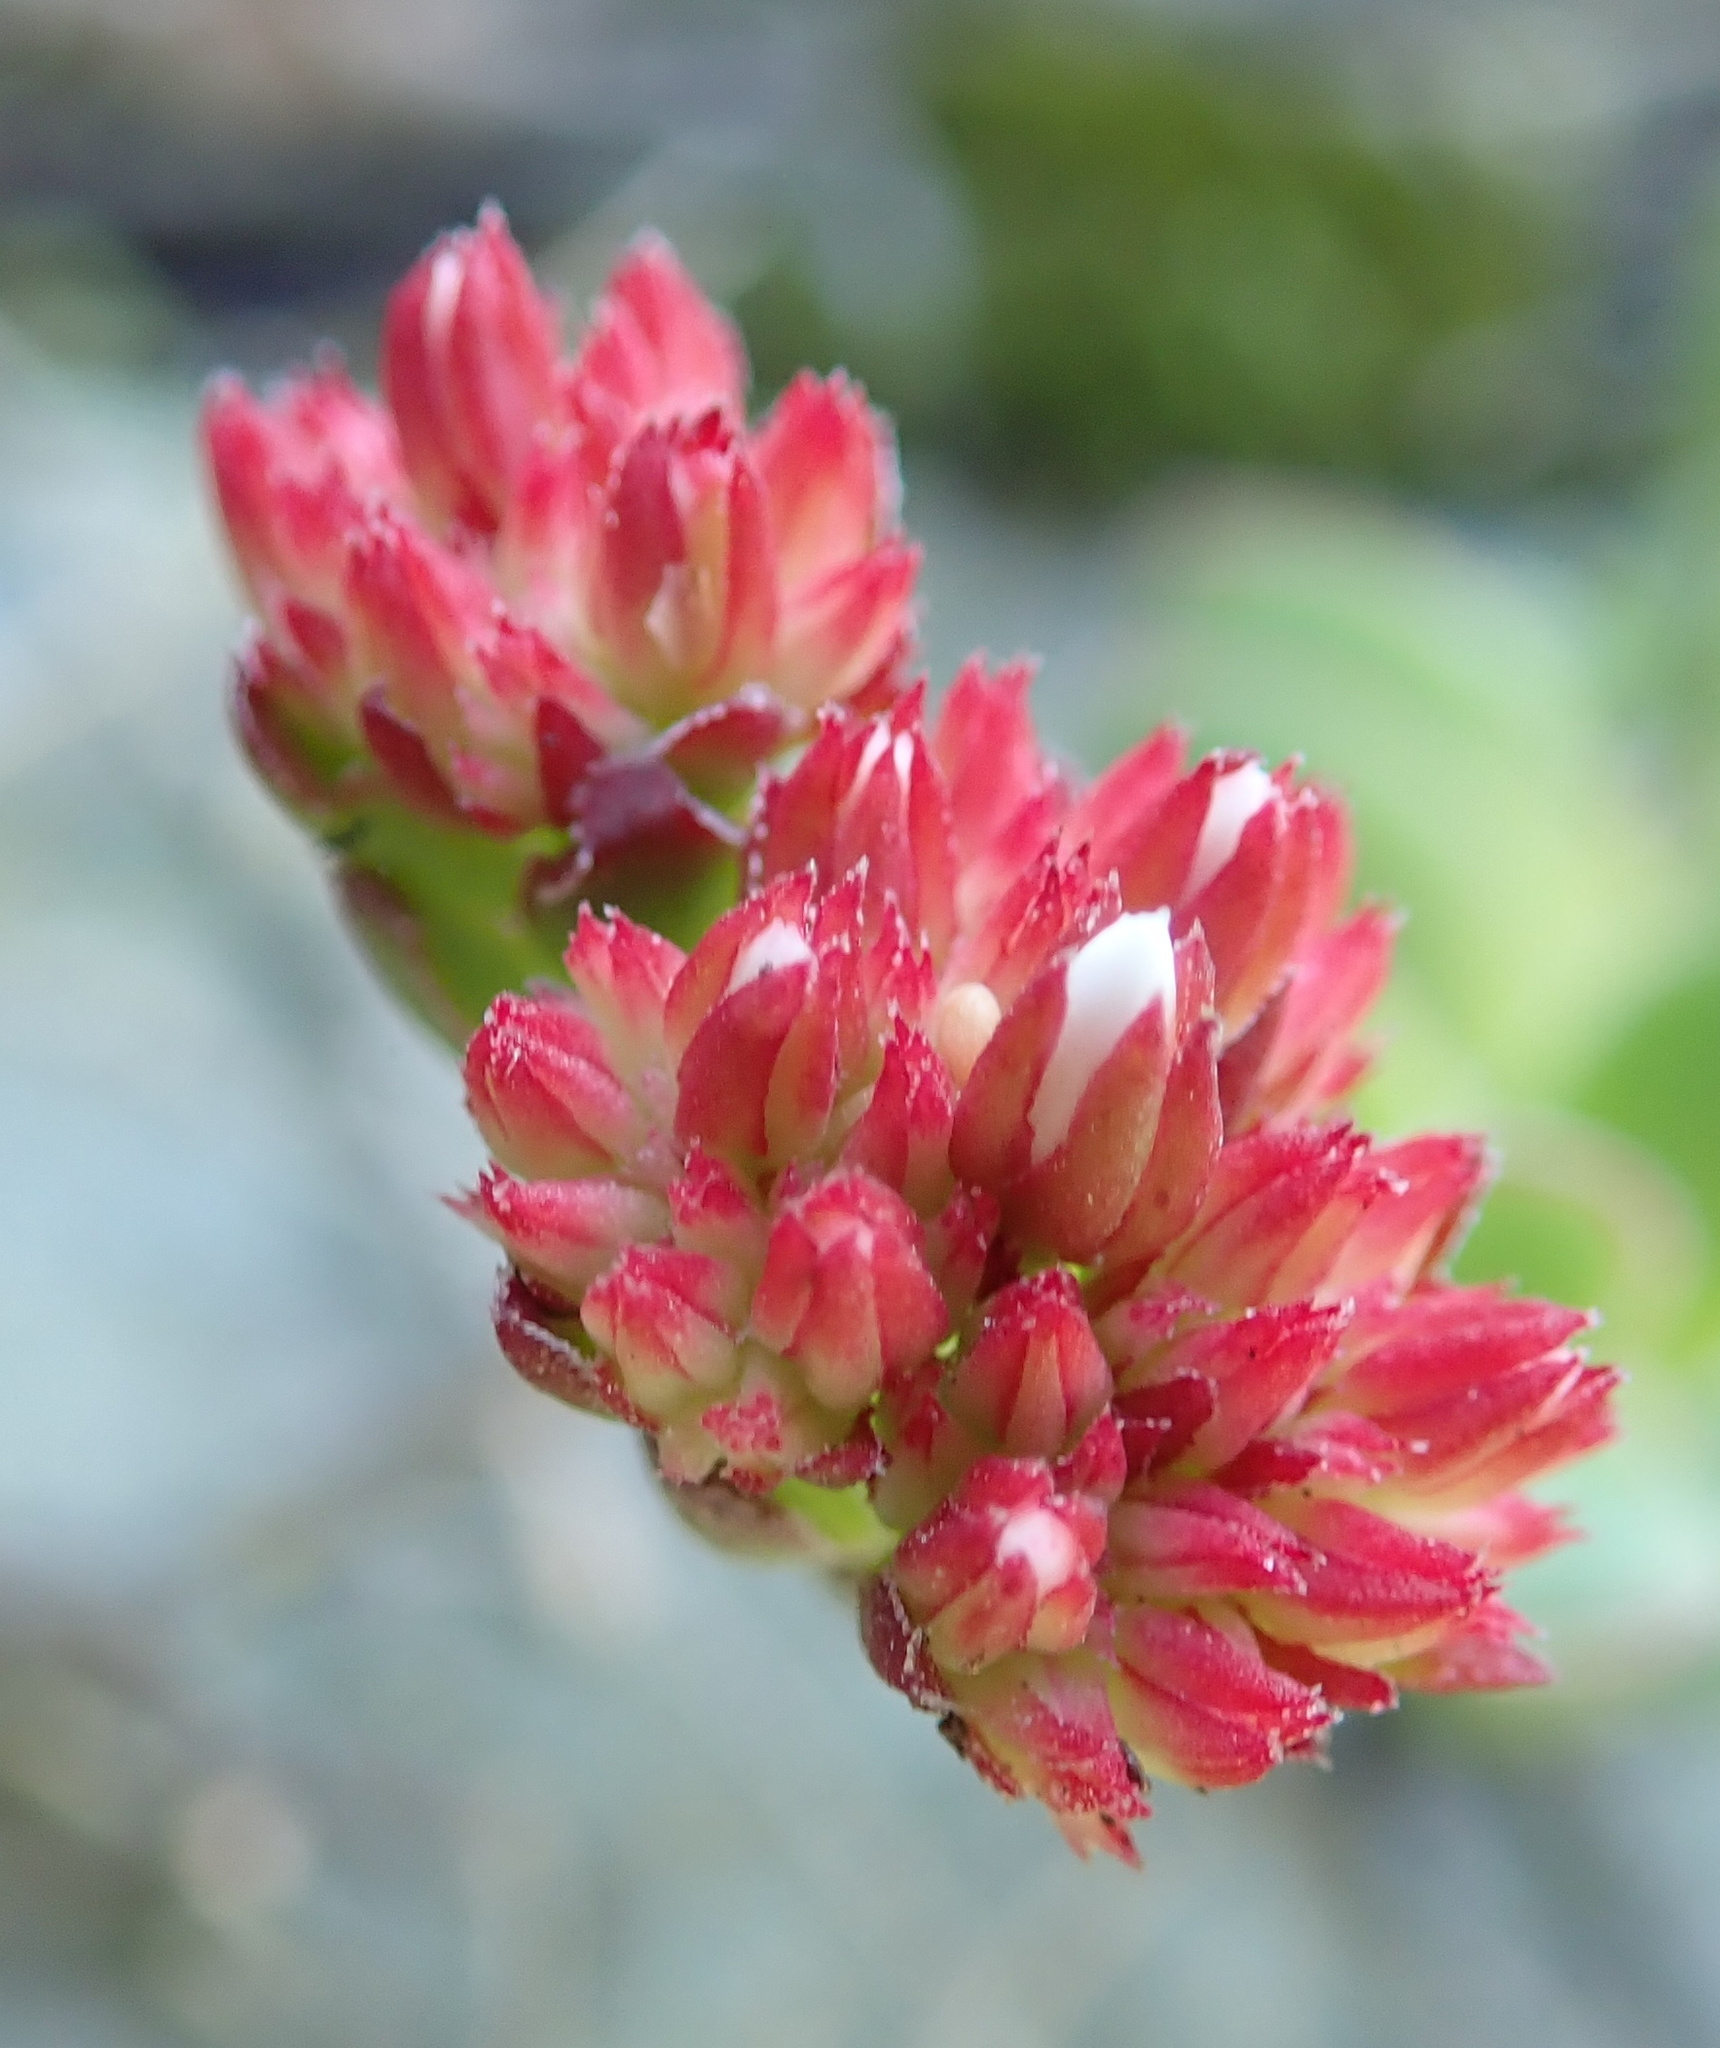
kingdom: Plantae
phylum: Tracheophyta
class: Magnoliopsida
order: Saxifragales
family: Crassulaceae
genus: Crassula
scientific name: Crassula rubricaulis
